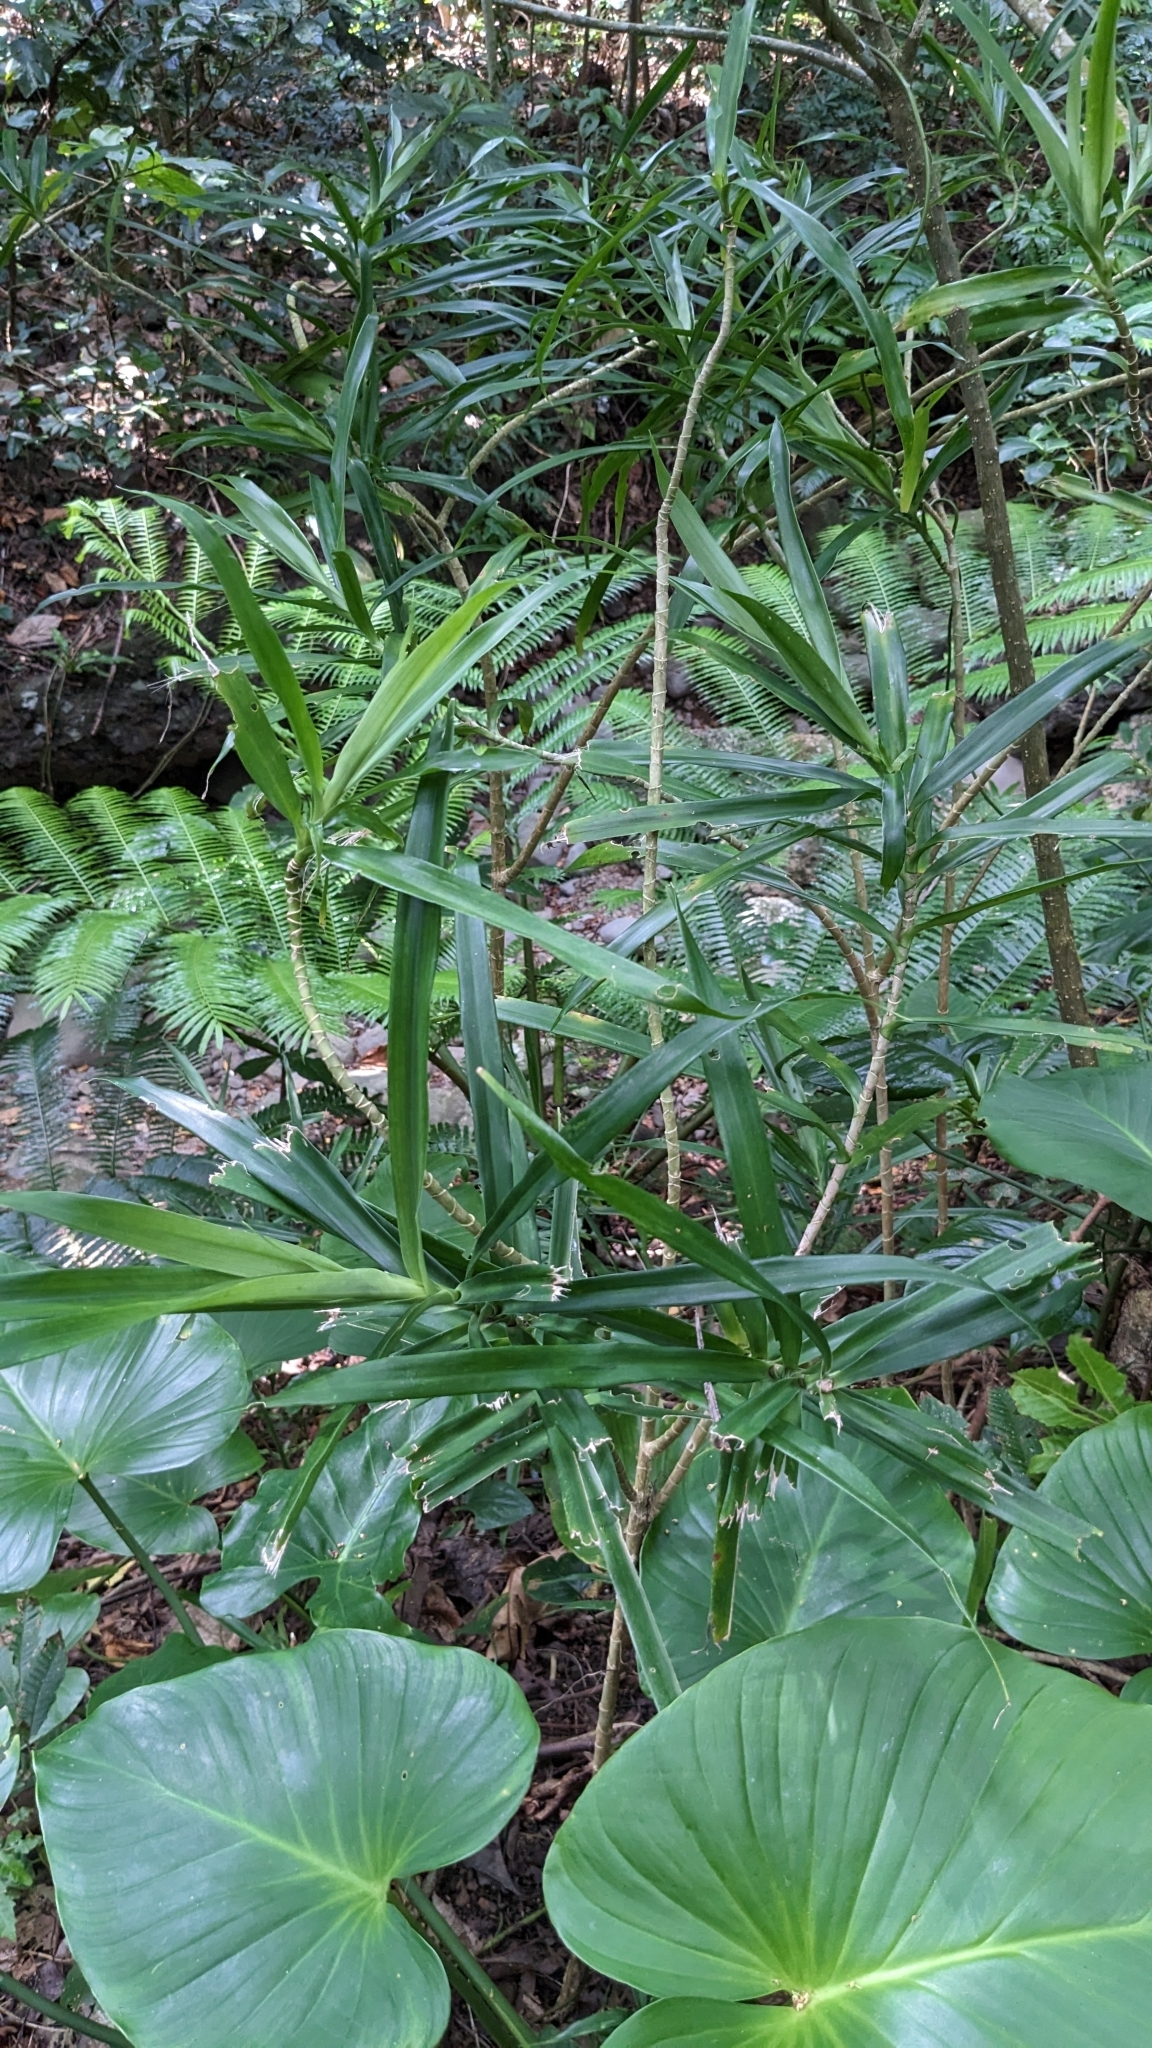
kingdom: Plantae
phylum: Tracheophyta
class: Liliopsida
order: Asparagales
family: Asparagaceae
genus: Dracaena
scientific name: Dracaena angustifolia
